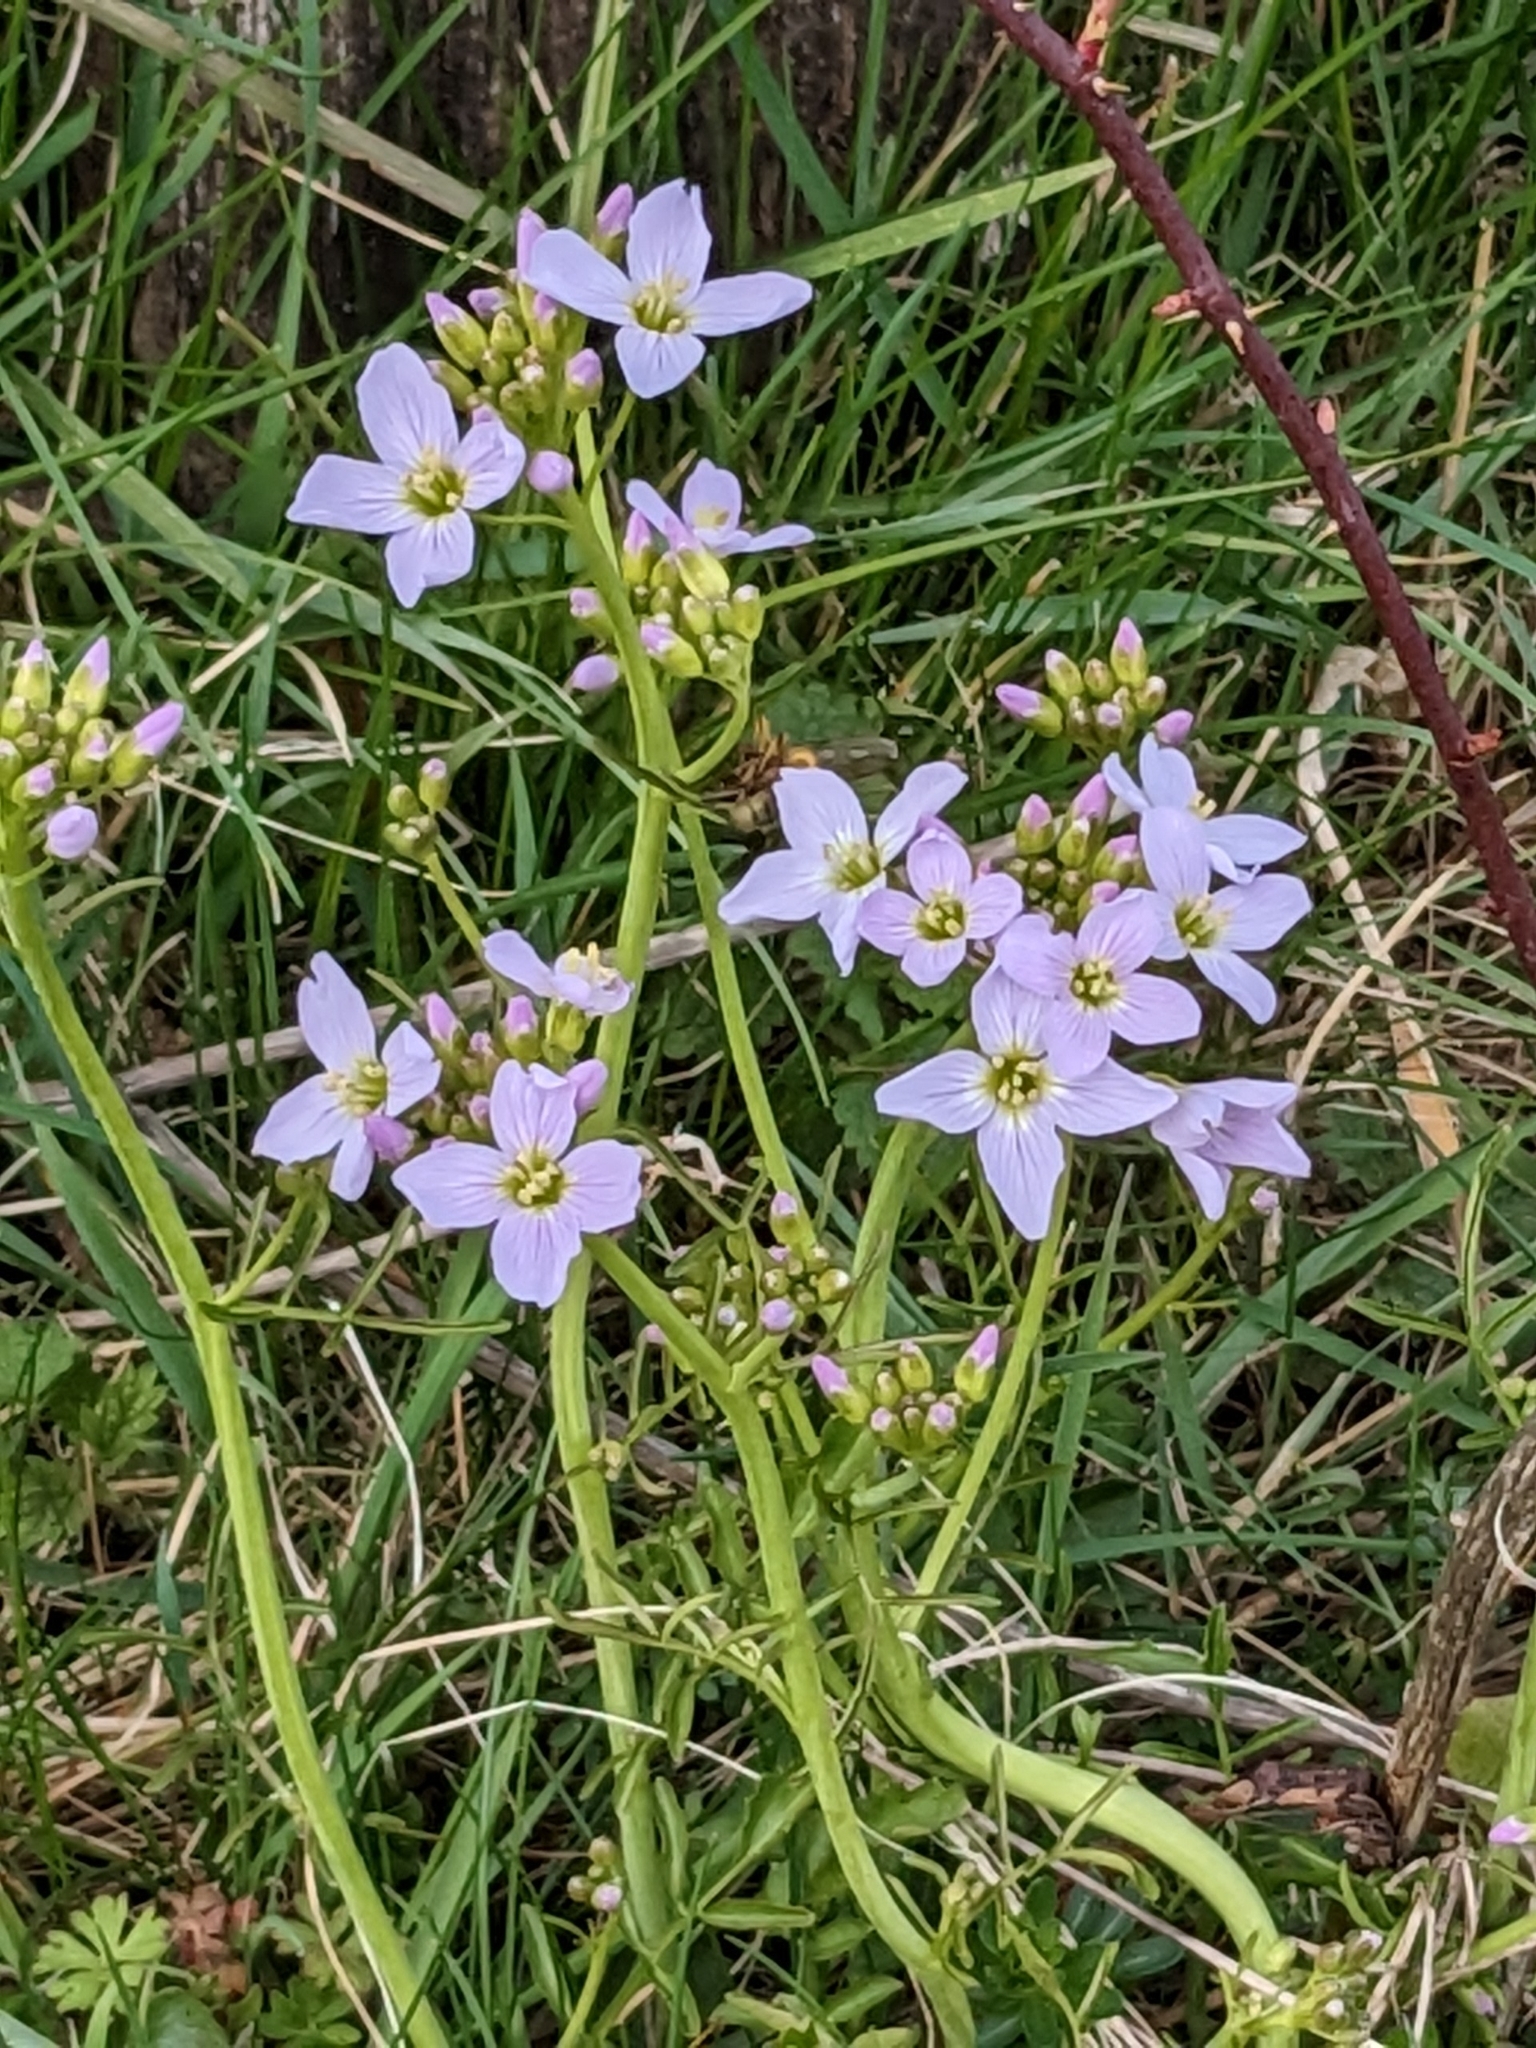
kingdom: Plantae
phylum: Tracheophyta
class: Magnoliopsida
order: Brassicales
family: Brassicaceae
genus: Cardamine
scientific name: Cardamine pratensis
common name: Cuckoo flower
